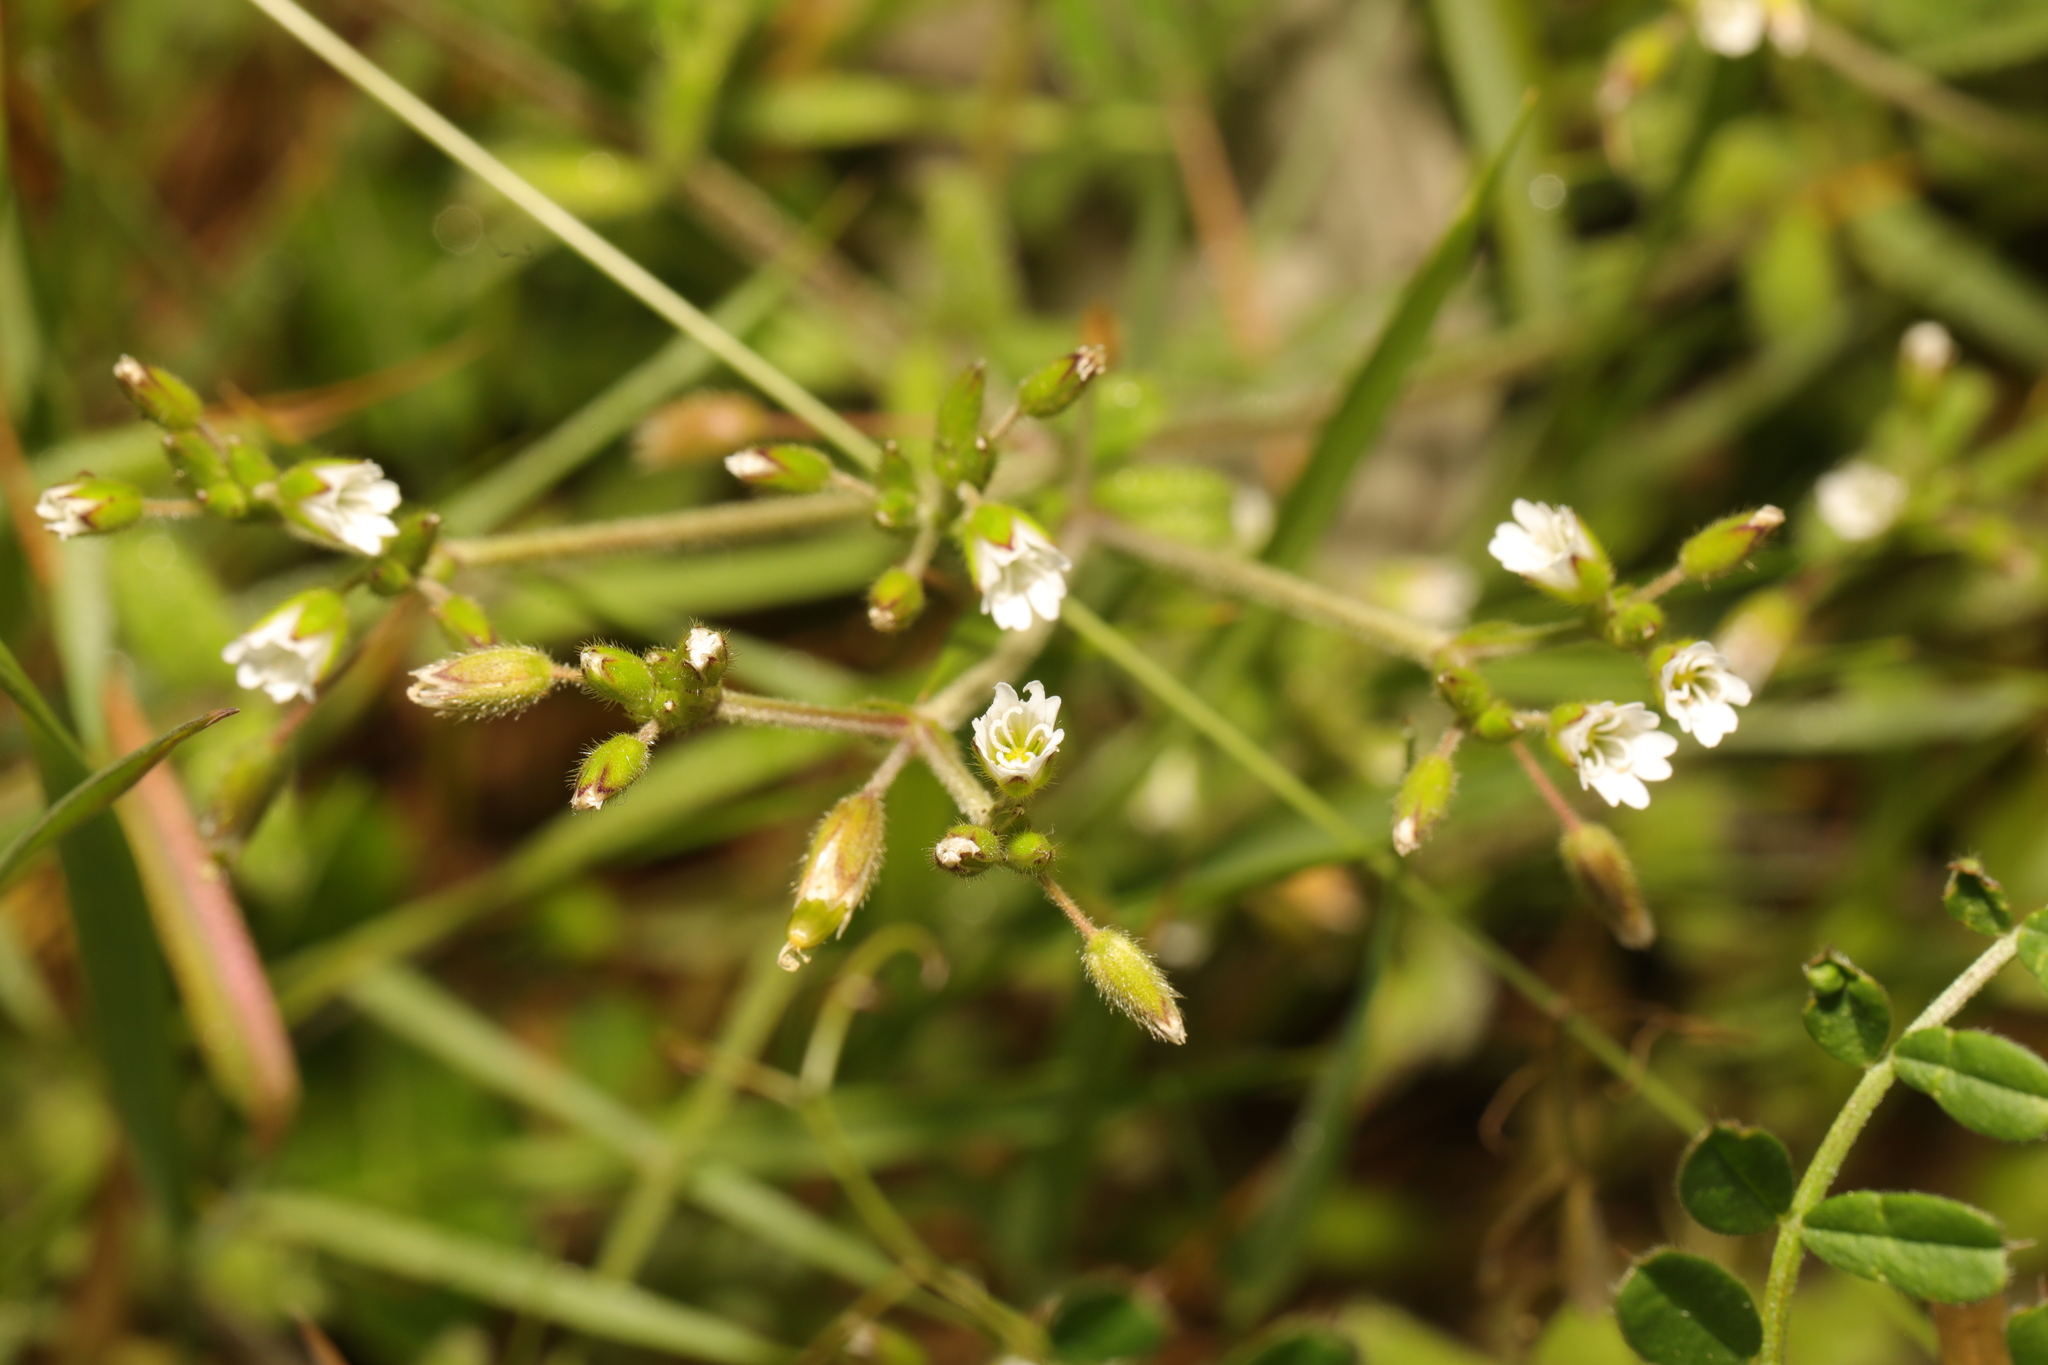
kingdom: Plantae
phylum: Tracheophyta
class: Magnoliopsida
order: Caryophyllales
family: Caryophyllaceae
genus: Cerastium
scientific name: Cerastium fontanum
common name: Common mouse-ear
